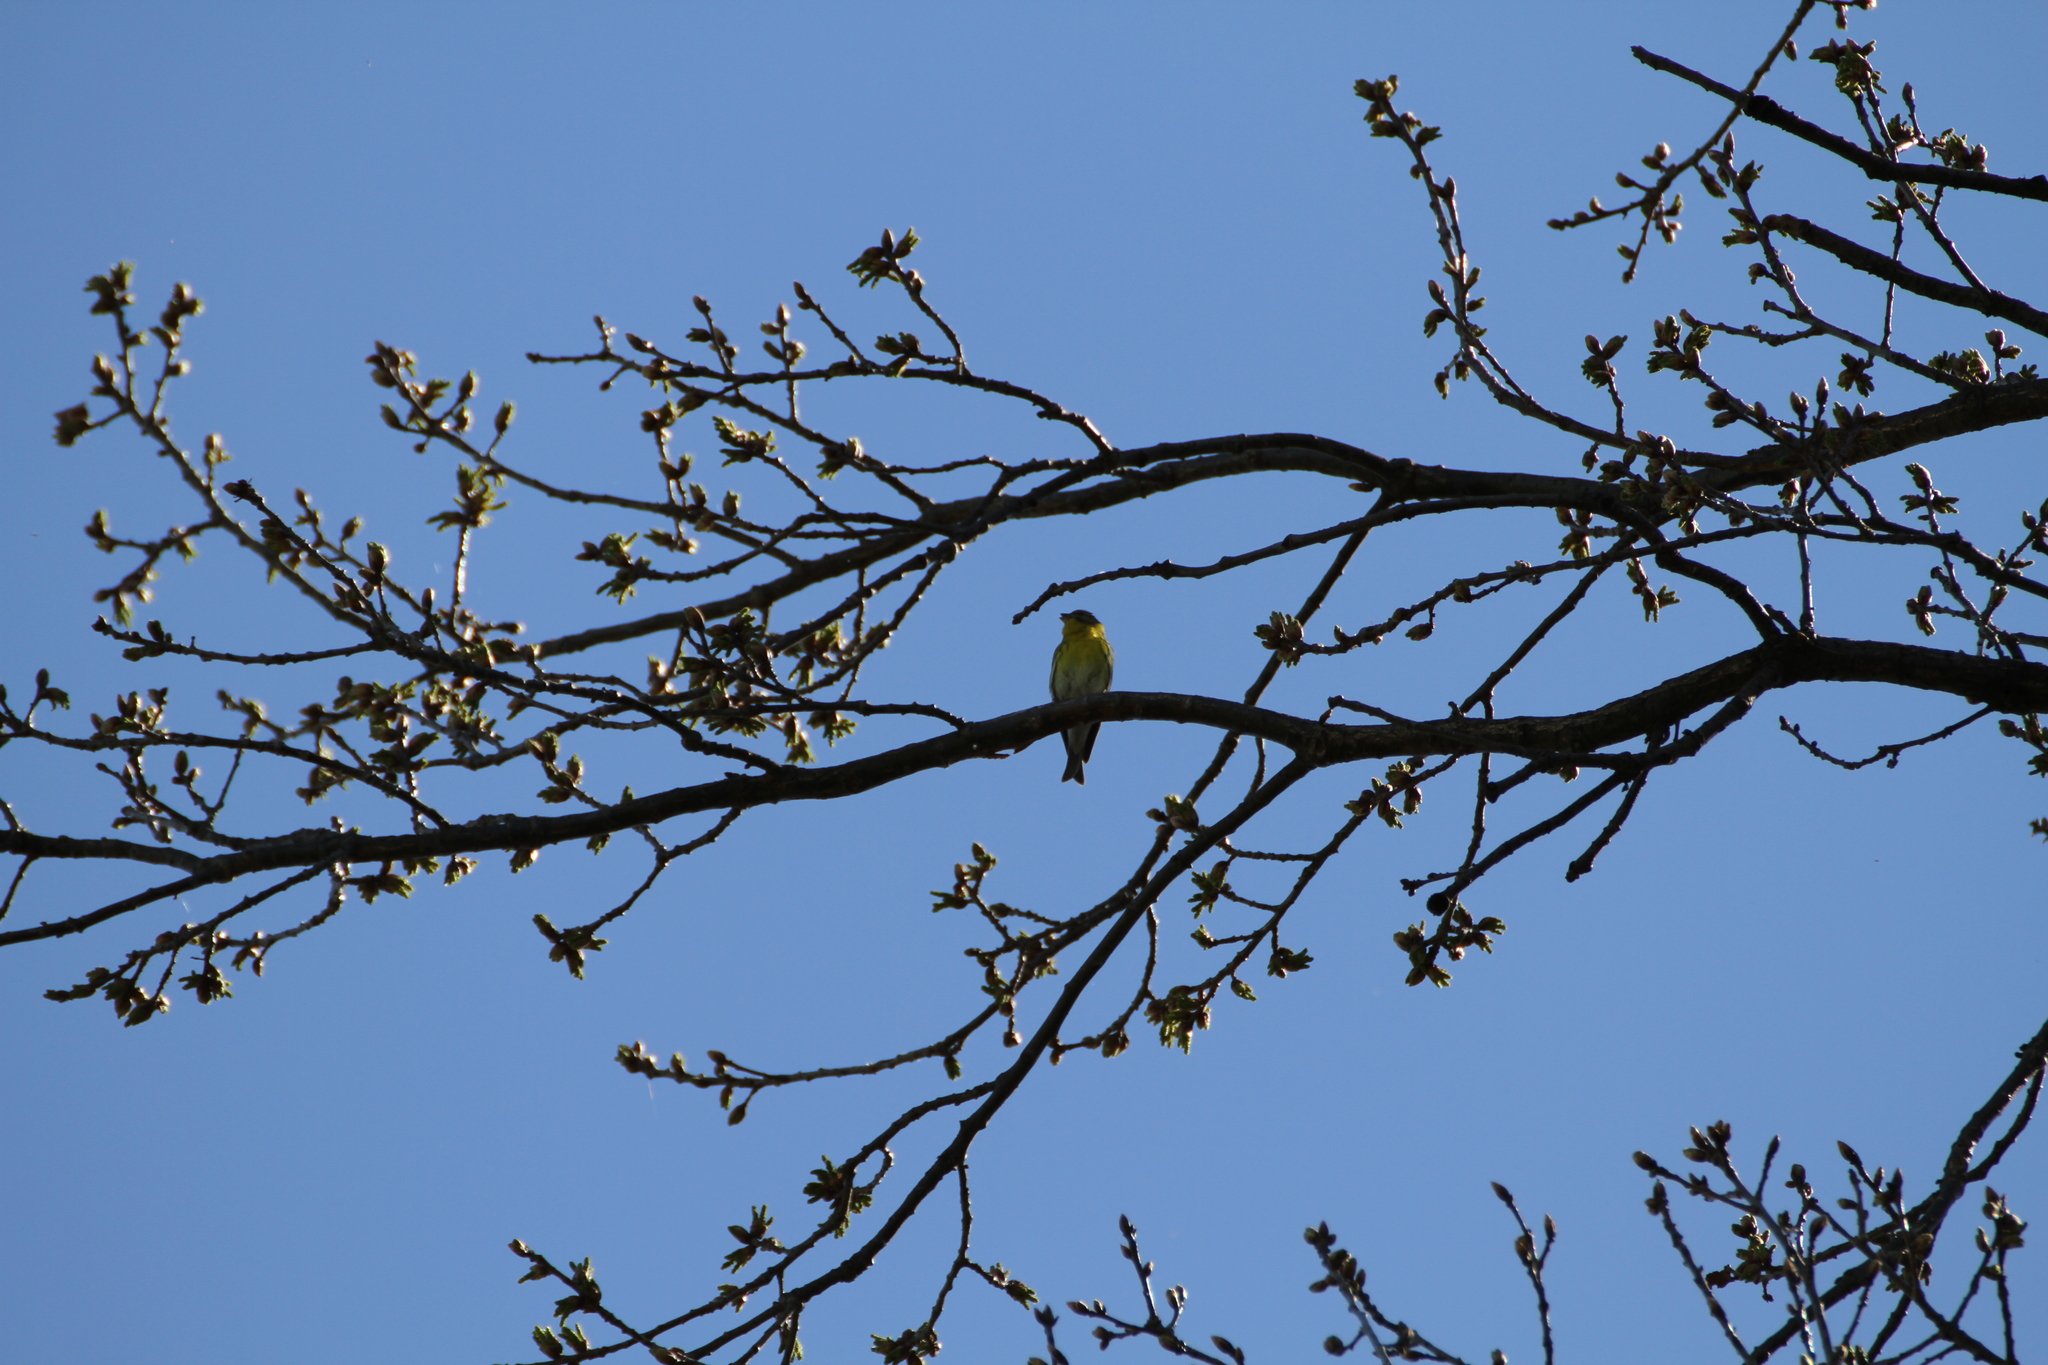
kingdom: Animalia
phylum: Chordata
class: Aves
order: Passeriformes
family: Fringillidae
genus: Serinus
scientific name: Serinus serinus
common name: European serin
